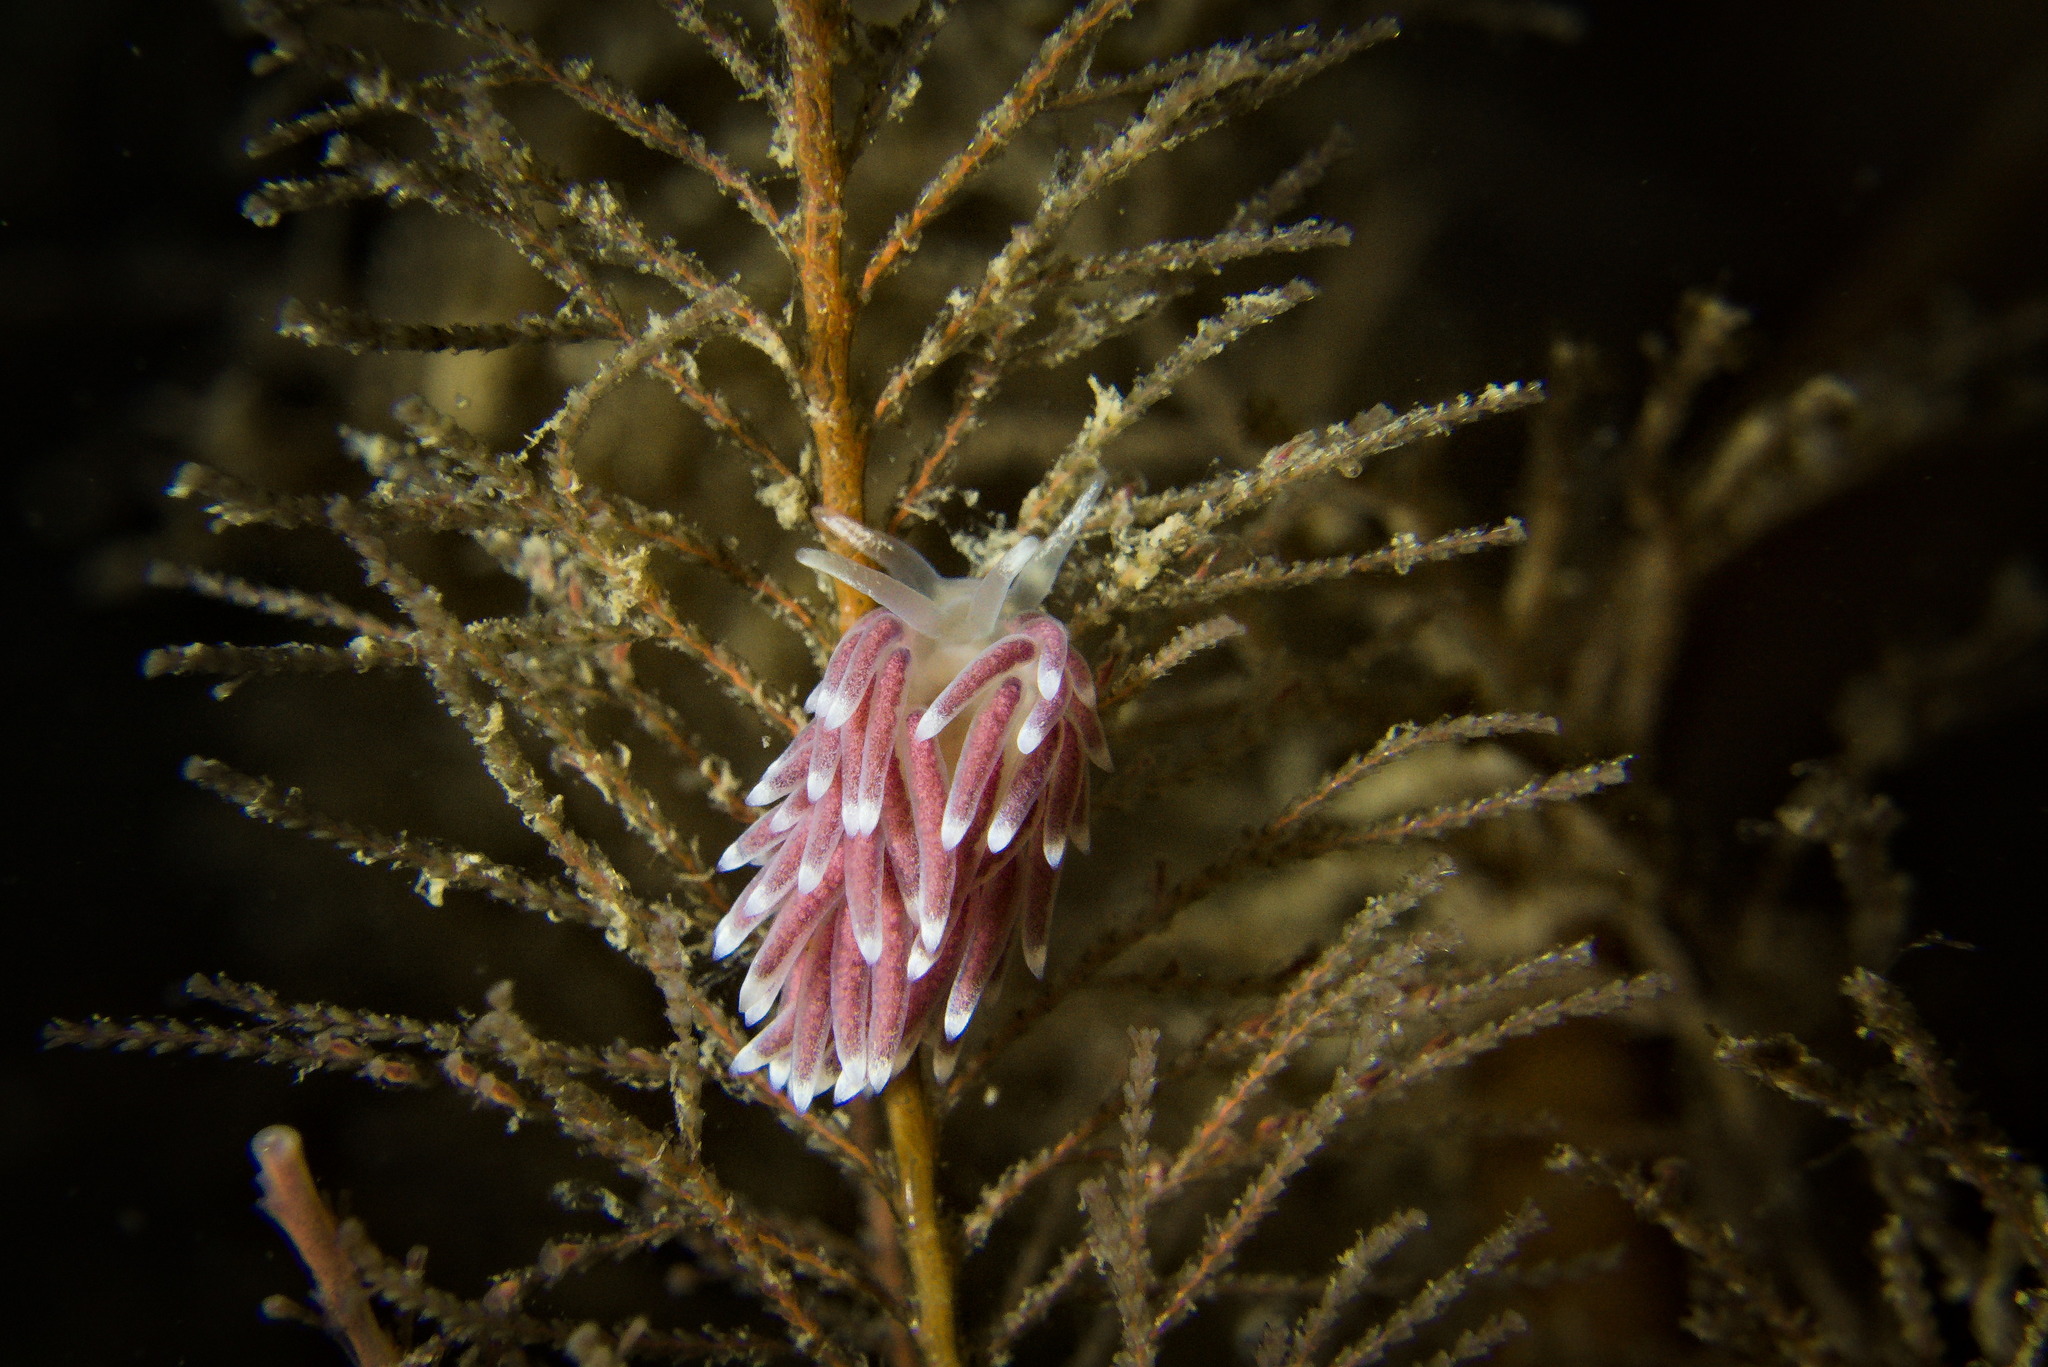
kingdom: Animalia
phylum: Mollusca
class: Gastropoda
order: Nudibranchia
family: Cuthonellidae
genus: Cuthonella
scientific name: Cuthonella concinna
